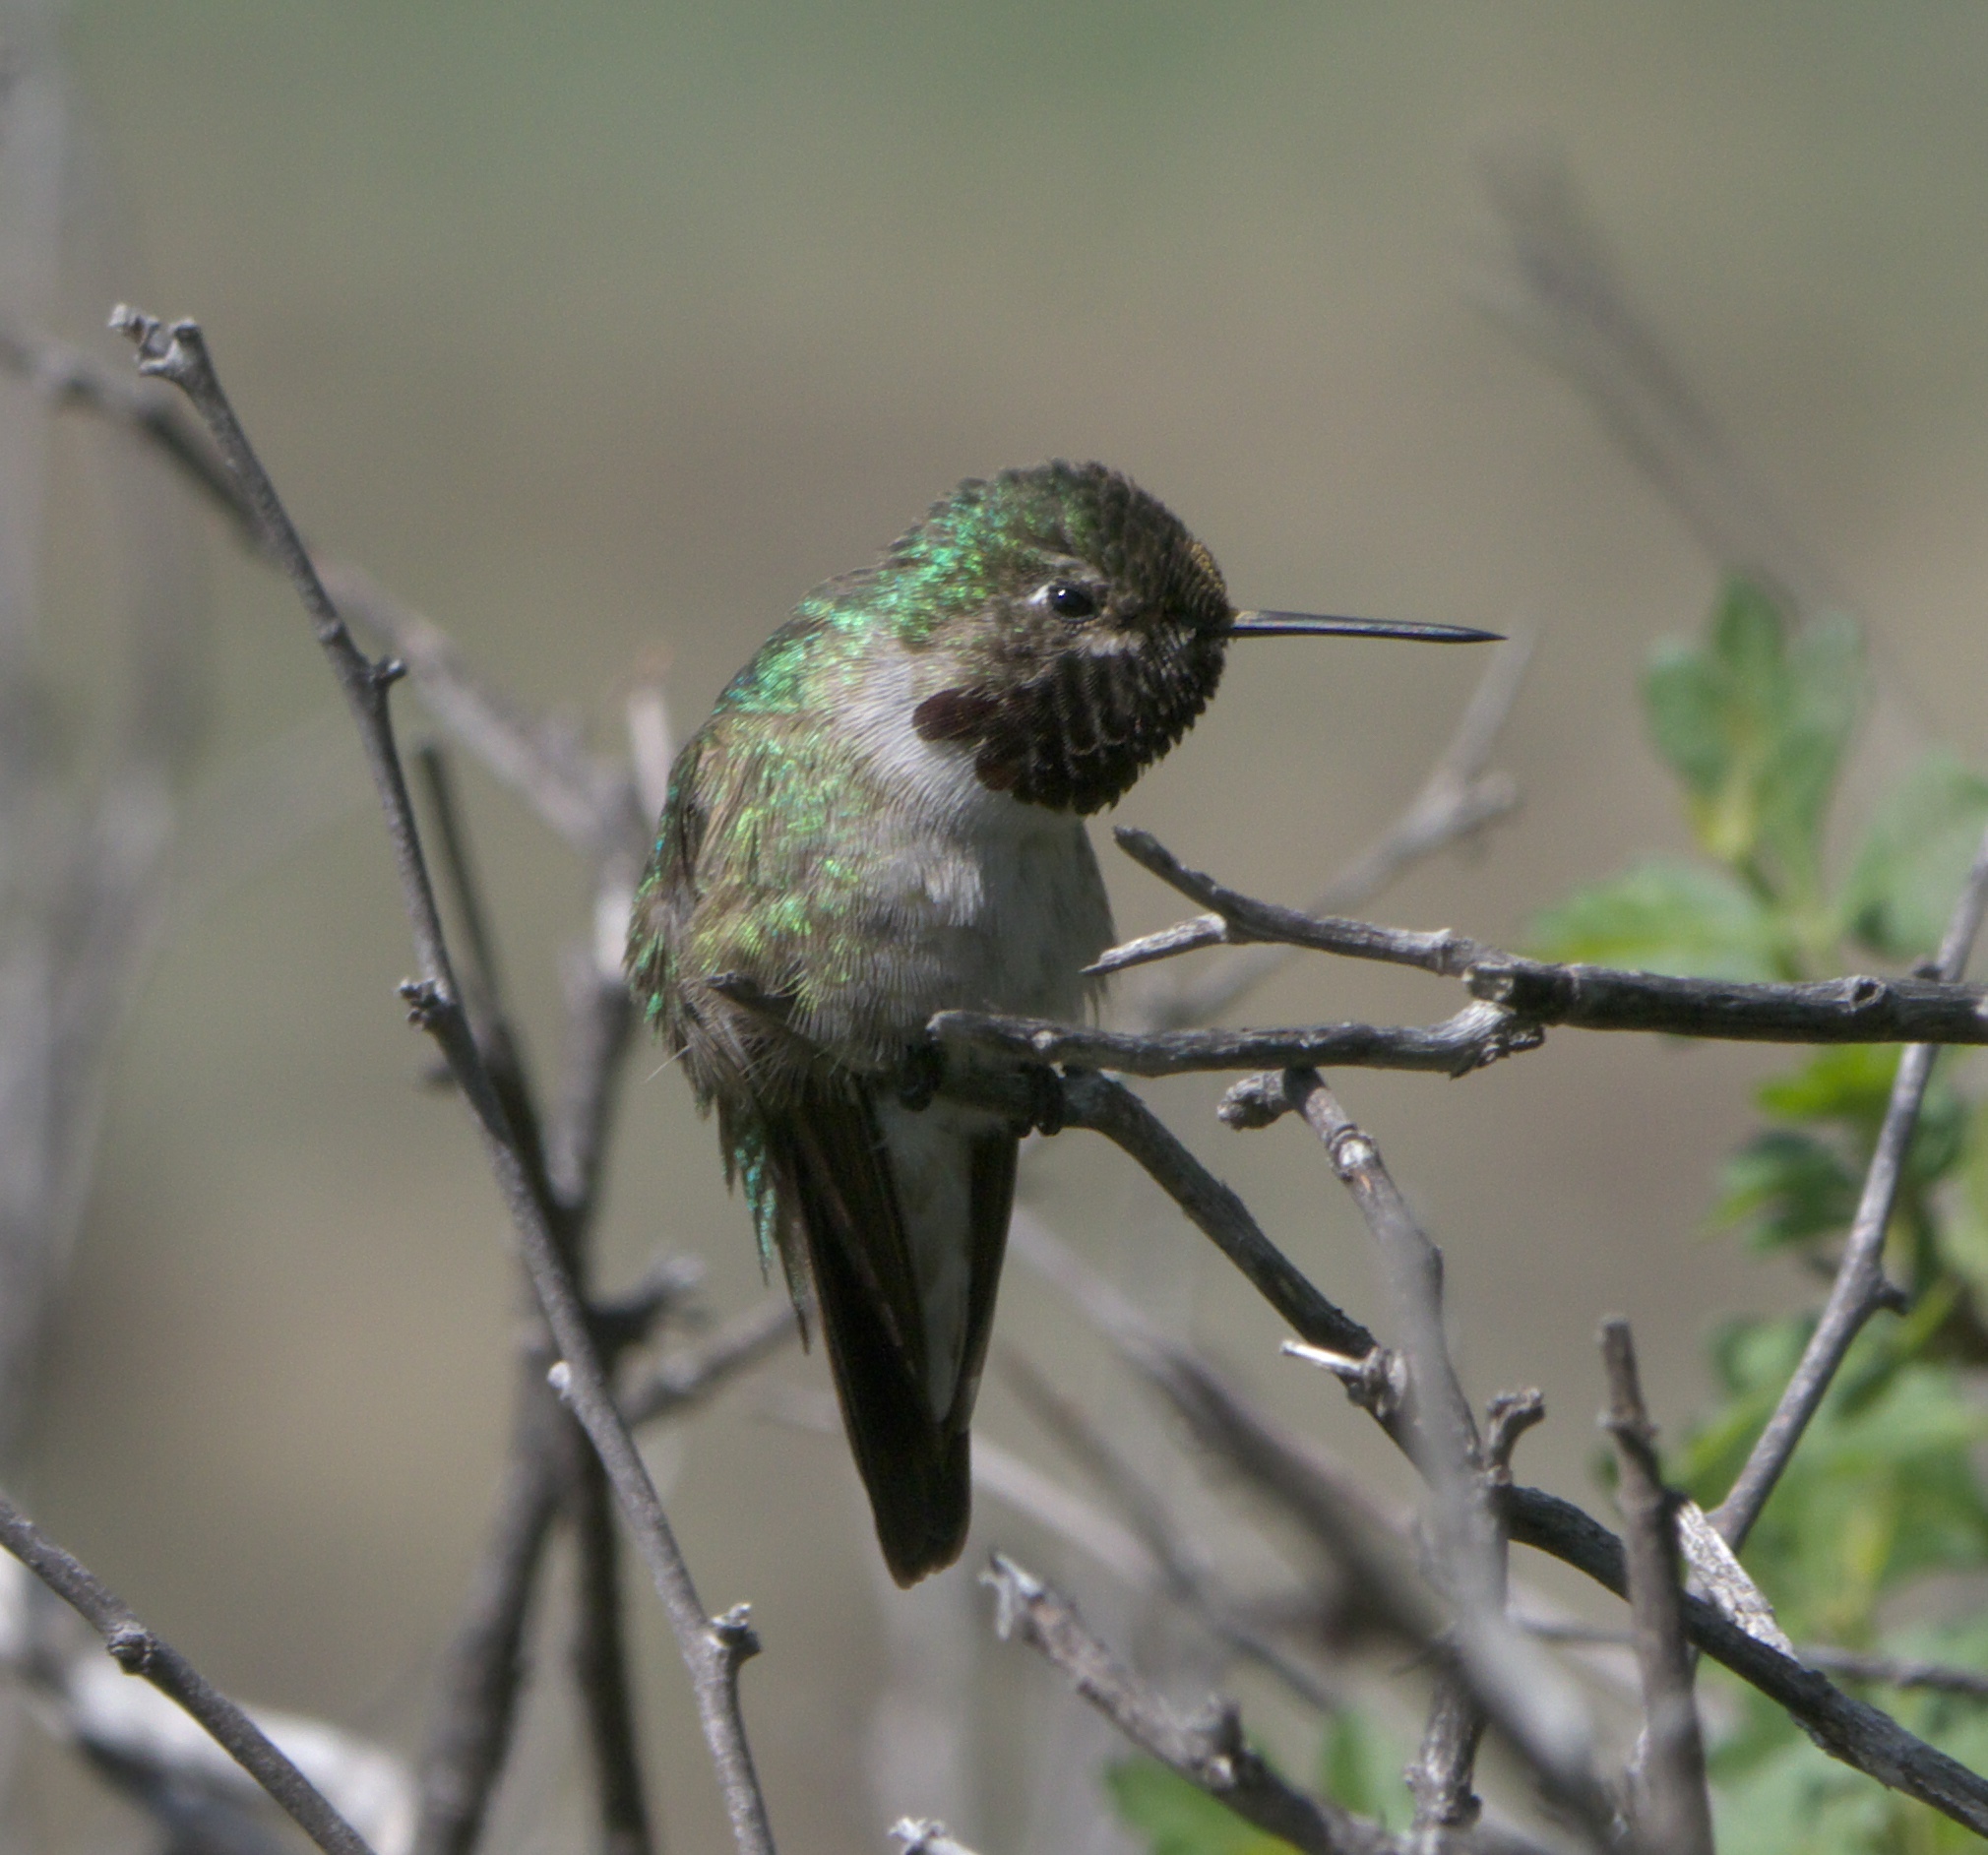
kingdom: Animalia
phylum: Chordata
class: Aves
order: Apodiformes
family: Trochilidae
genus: Selasphorus
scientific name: Selasphorus platycercus
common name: Broad-tailed hummingbird
